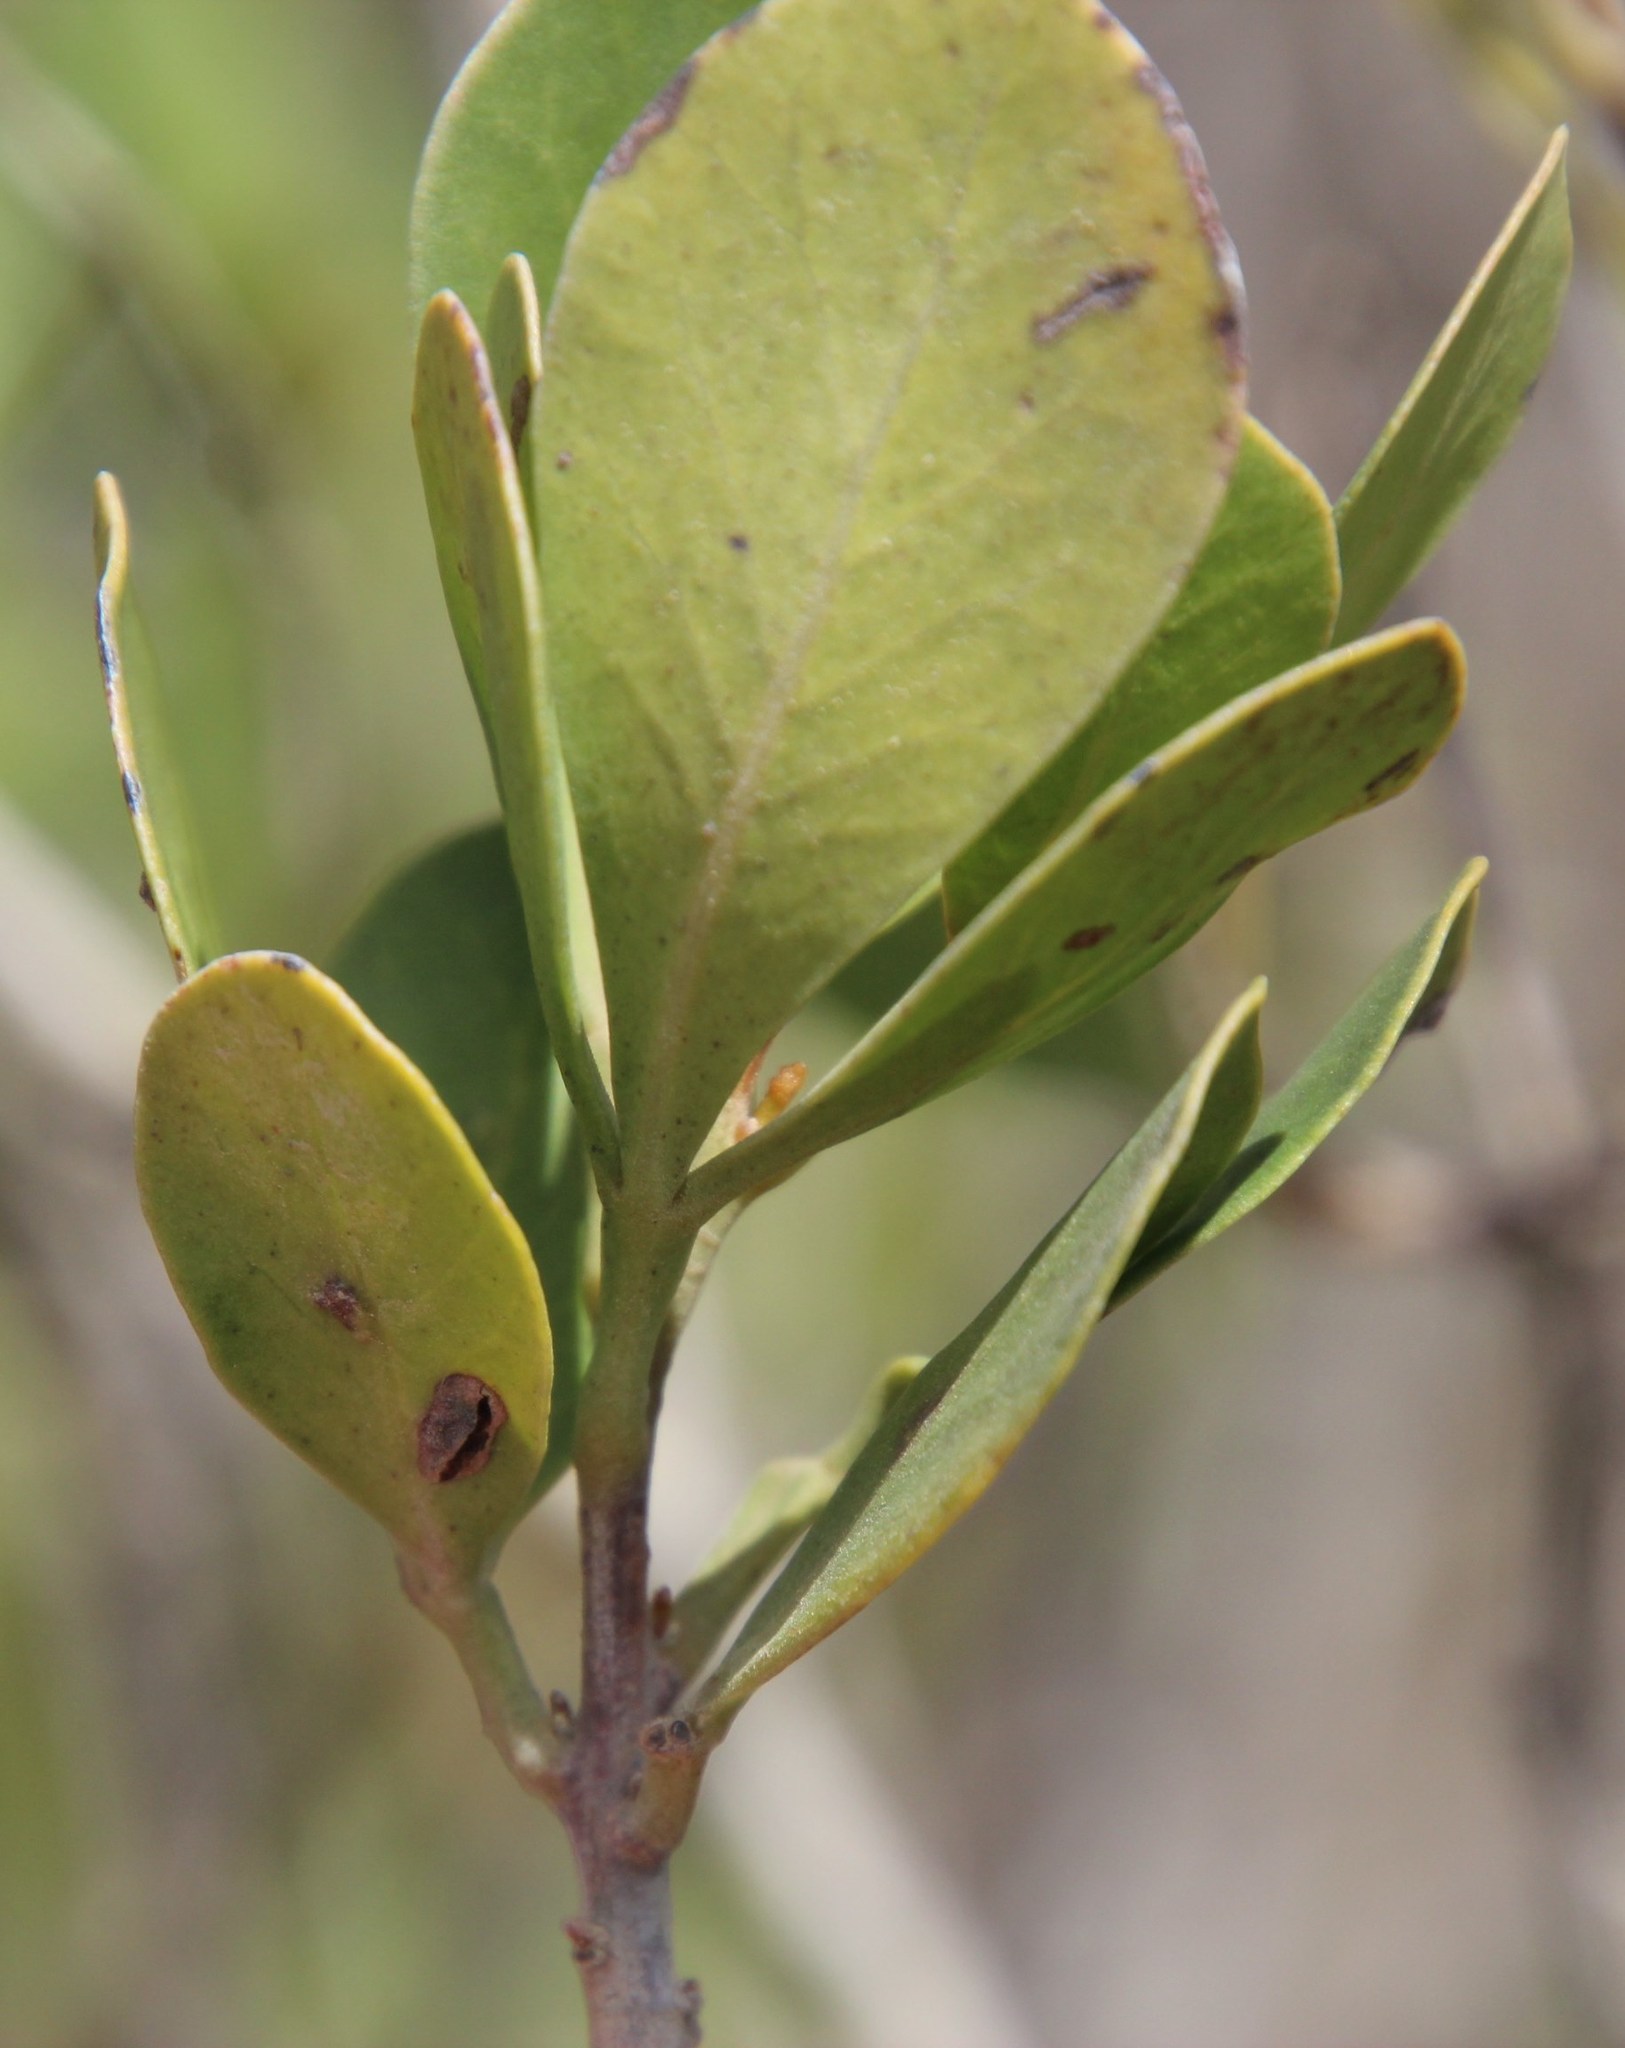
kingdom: Plantae
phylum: Tracheophyta
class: Magnoliopsida
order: Santalales
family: Viscaceae
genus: Viscum
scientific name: Viscum capense
